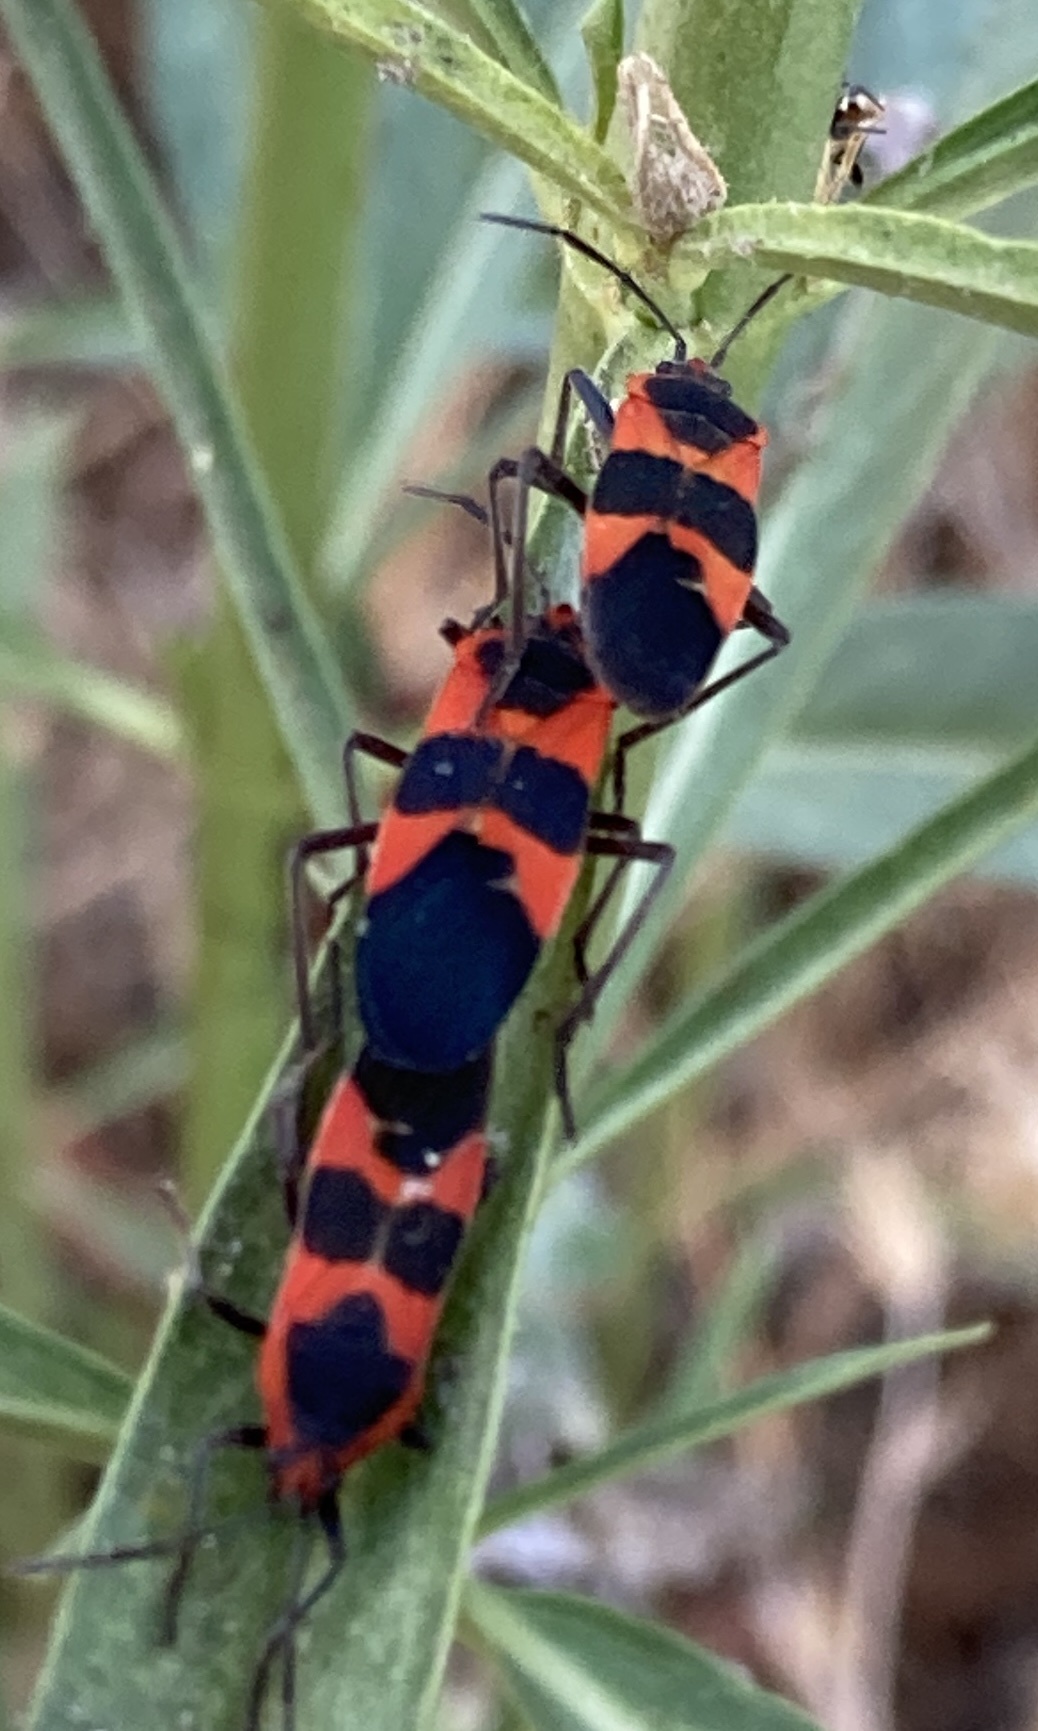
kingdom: Animalia
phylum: Arthropoda
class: Insecta
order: Hemiptera
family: Lygaeidae
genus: Oncopeltus
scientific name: Oncopeltus fasciatus
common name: Large milkweed bug
